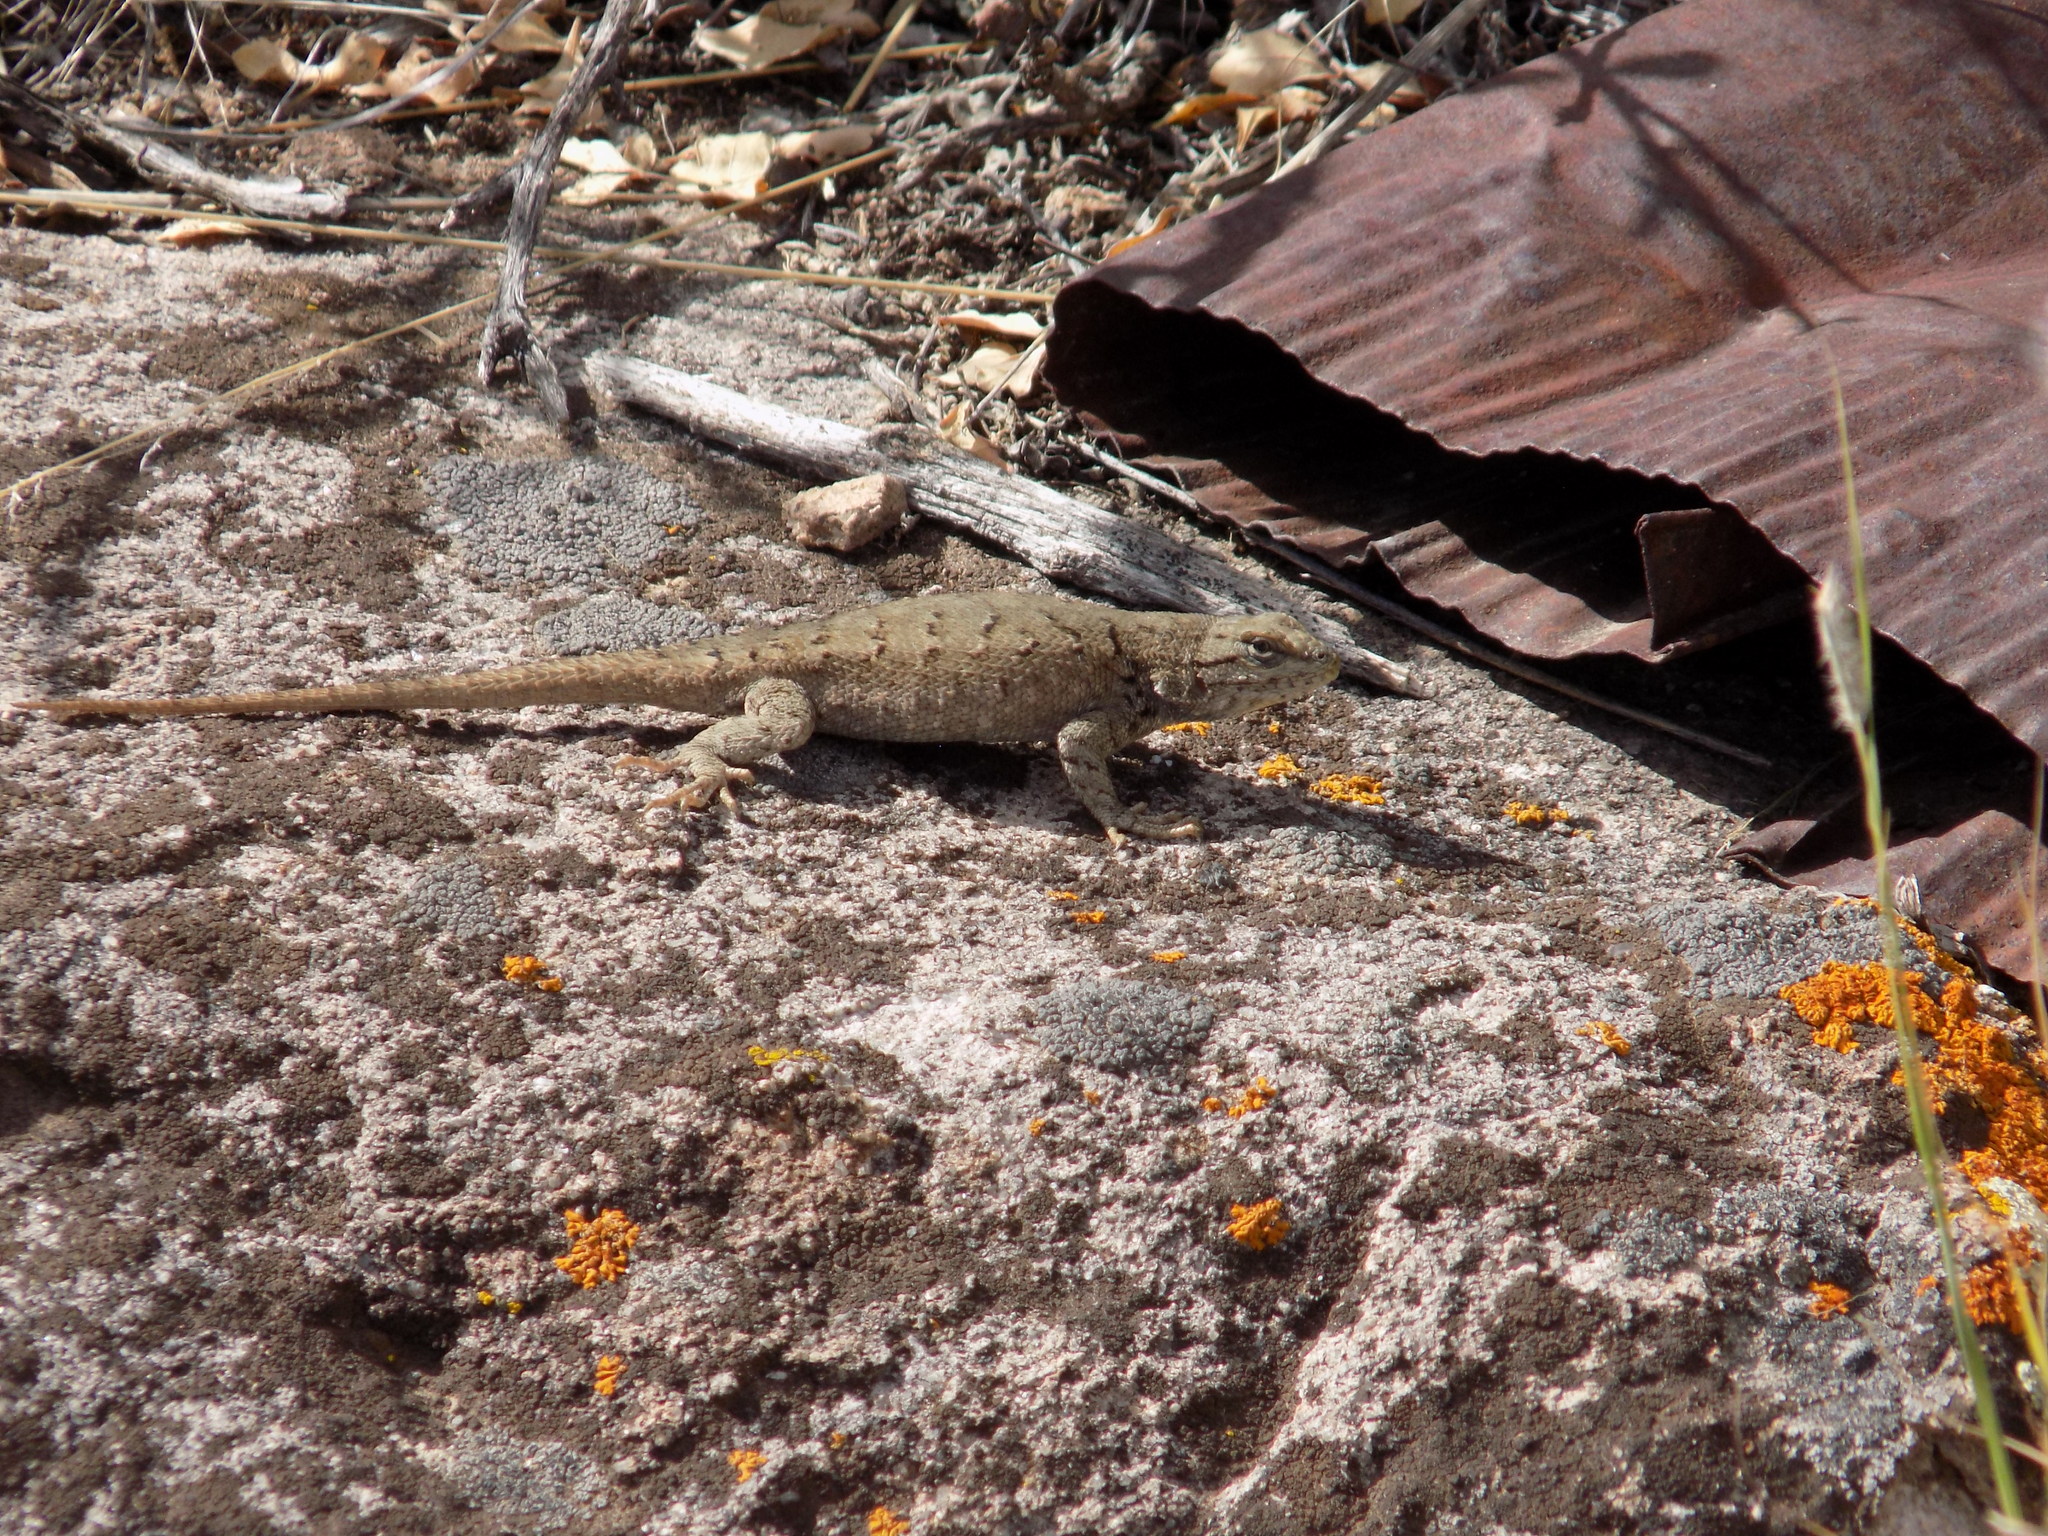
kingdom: Animalia
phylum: Chordata
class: Squamata
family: Phrynosomatidae
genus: Sceloporus
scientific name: Sceloporus tristichus
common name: Plateau fence lizard
